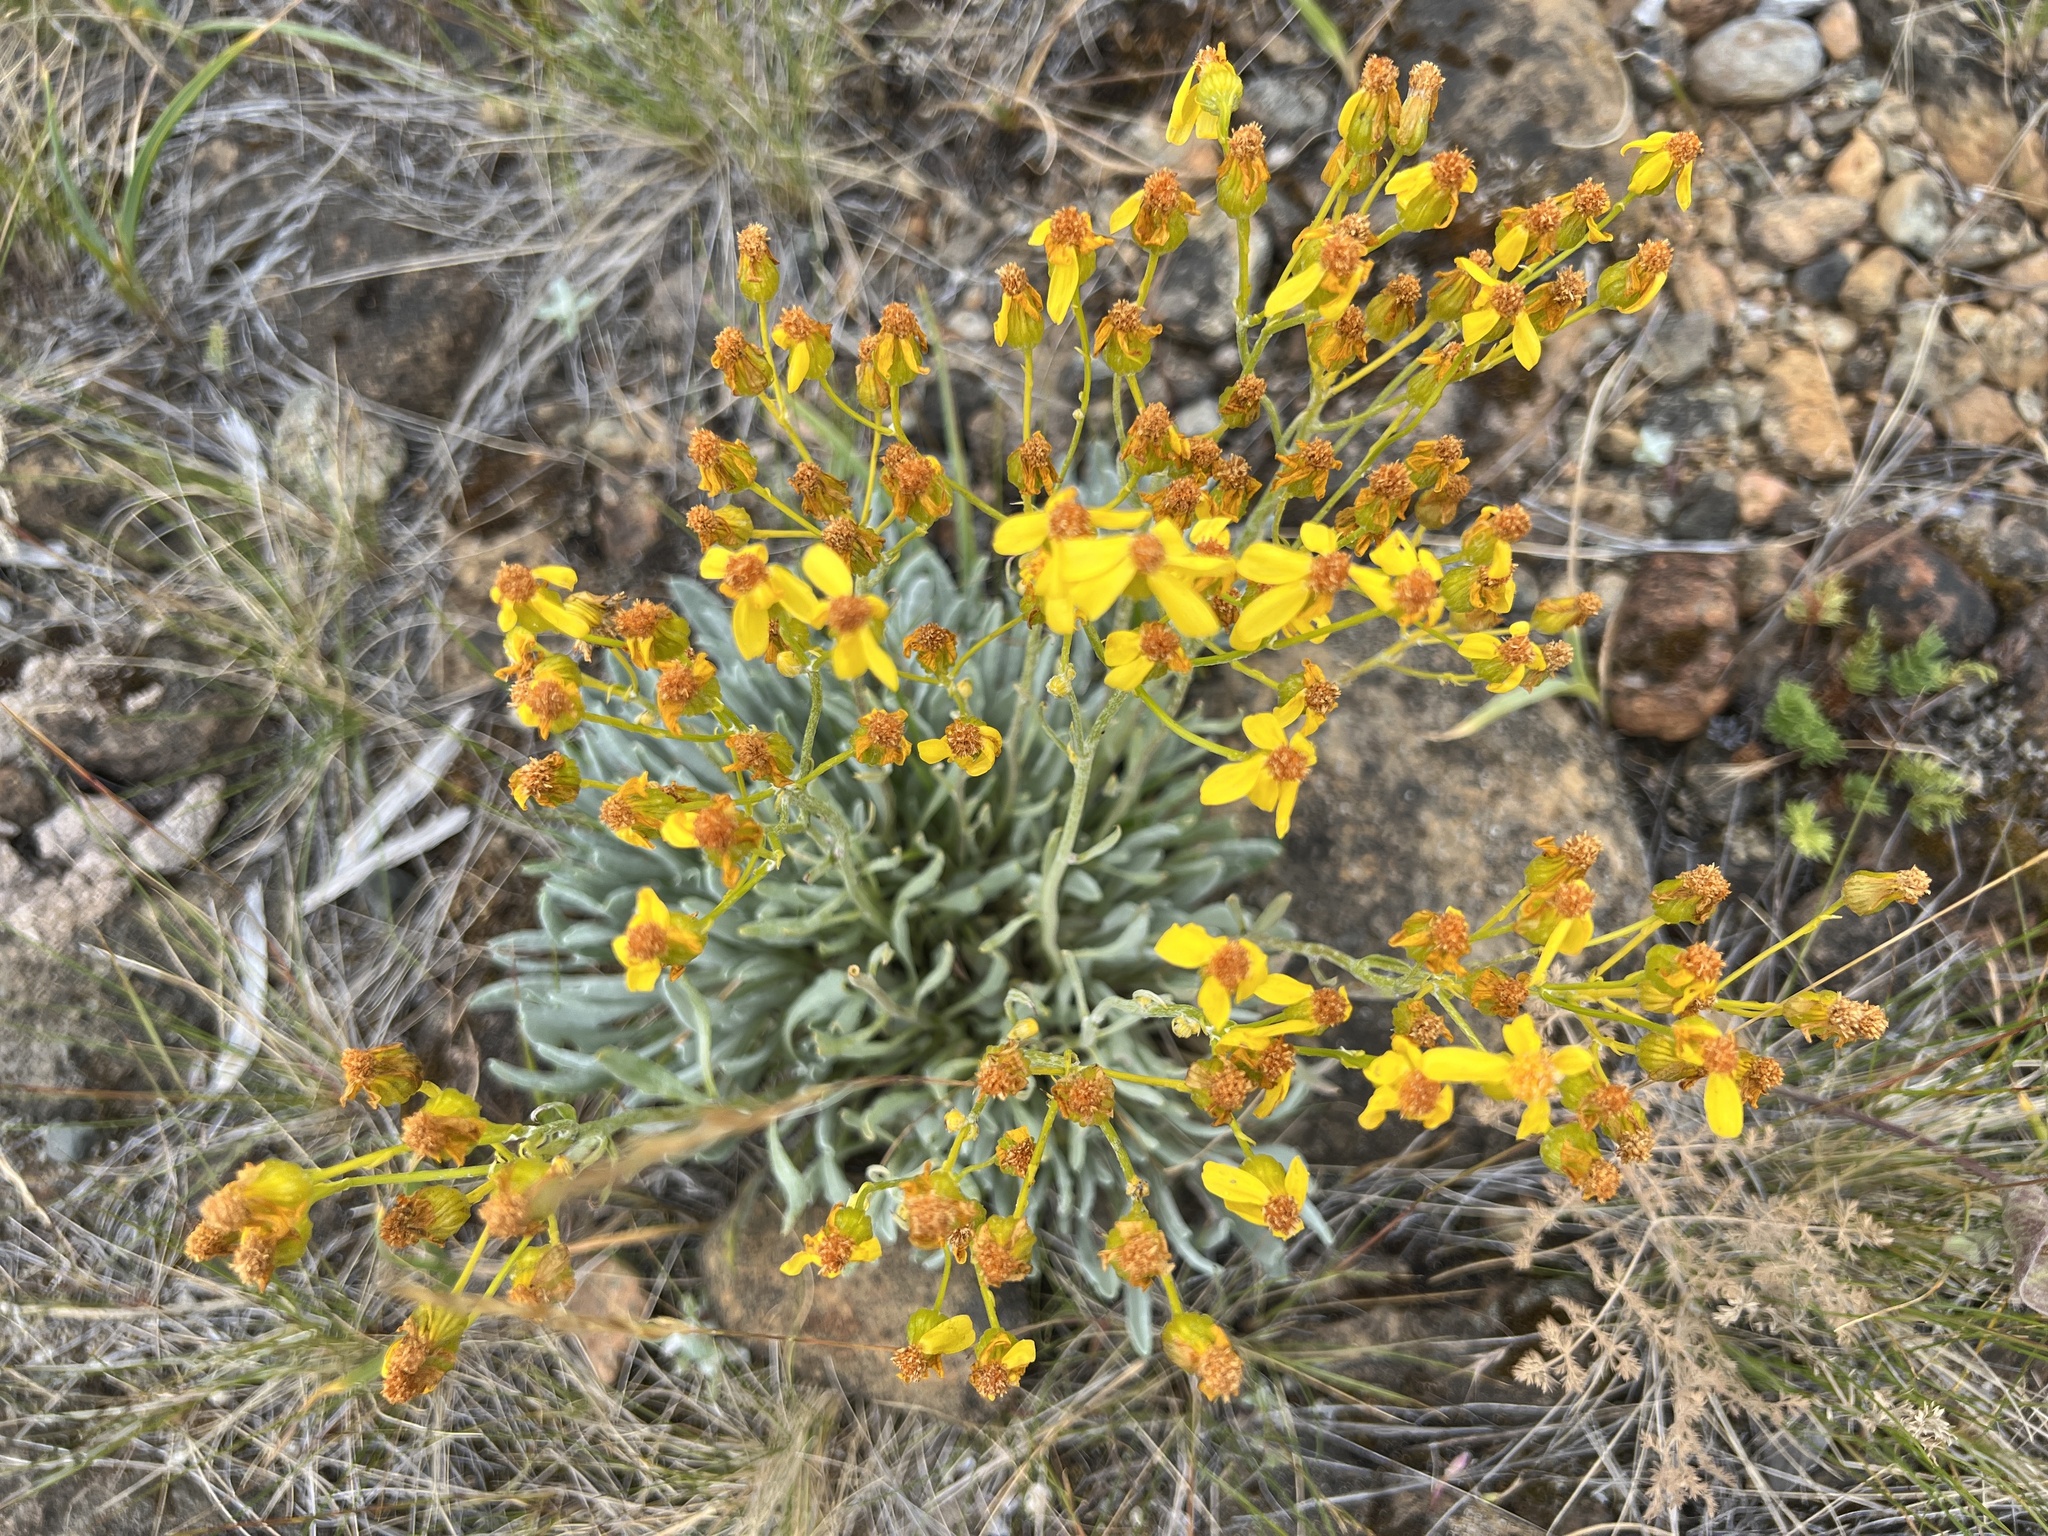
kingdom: Plantae
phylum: Tracheophyta
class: Magnoliopsida
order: Asterales
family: Asteraceae
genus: Packera
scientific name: Packera macounii
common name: Macoun's groundsel
